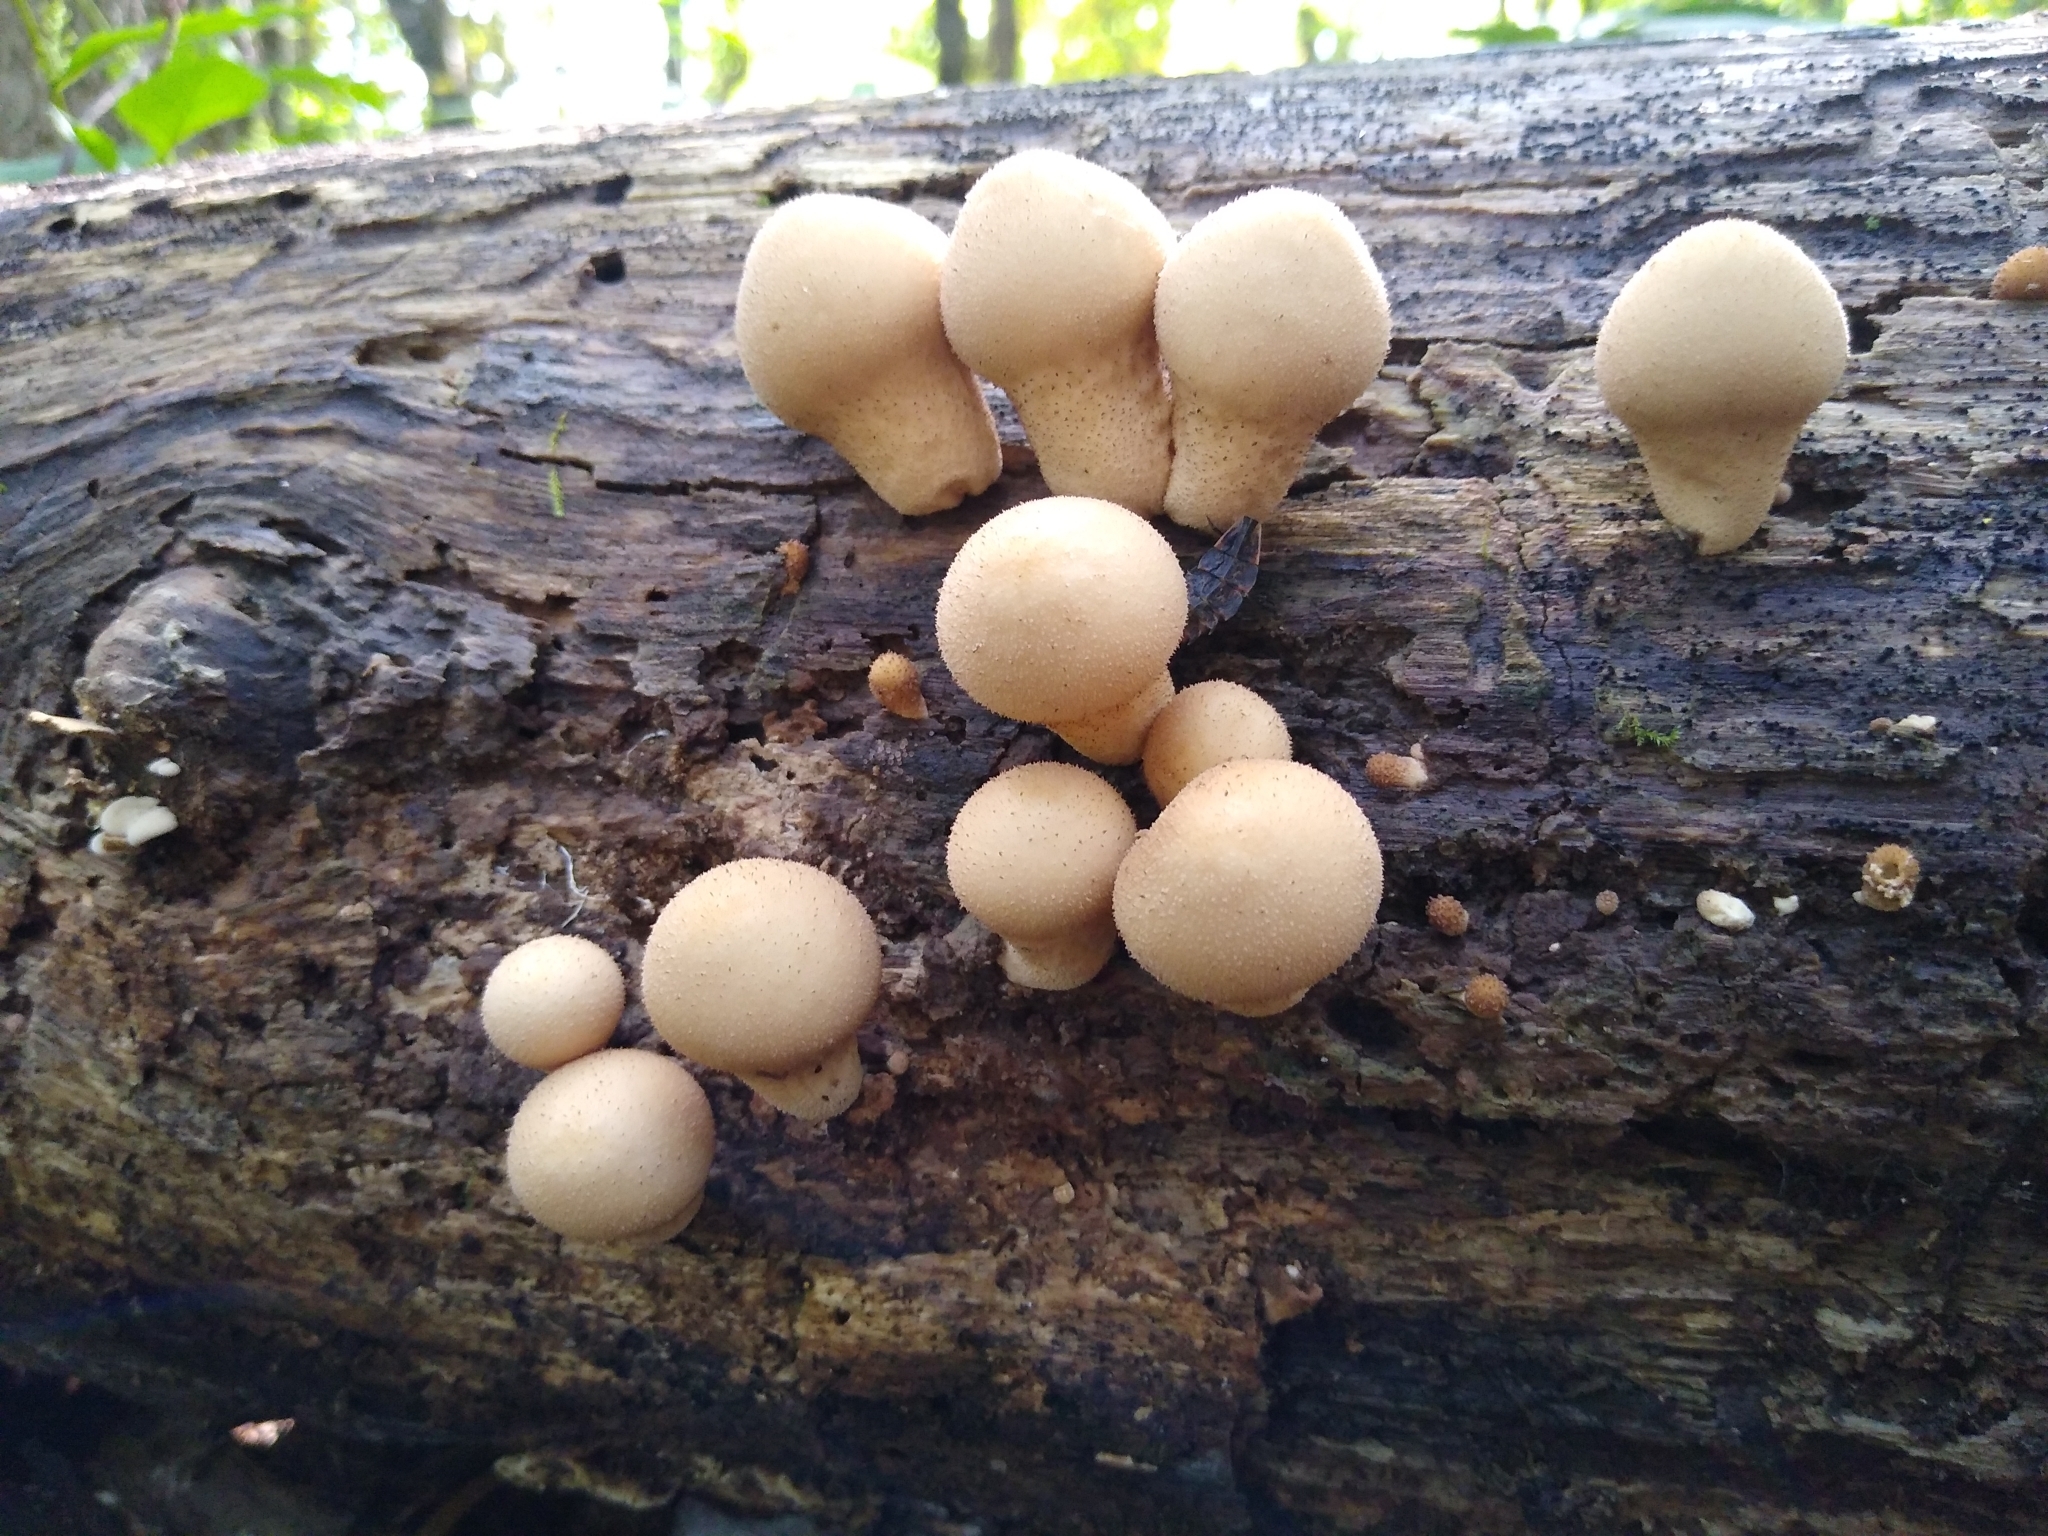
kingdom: Fungi
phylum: Basidiomycota
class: Agaricomycetes
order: Agaricales
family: Lycoperdaceae
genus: Apioperdon
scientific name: Apioperdon pyriforme
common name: Pear-shaped puffball
